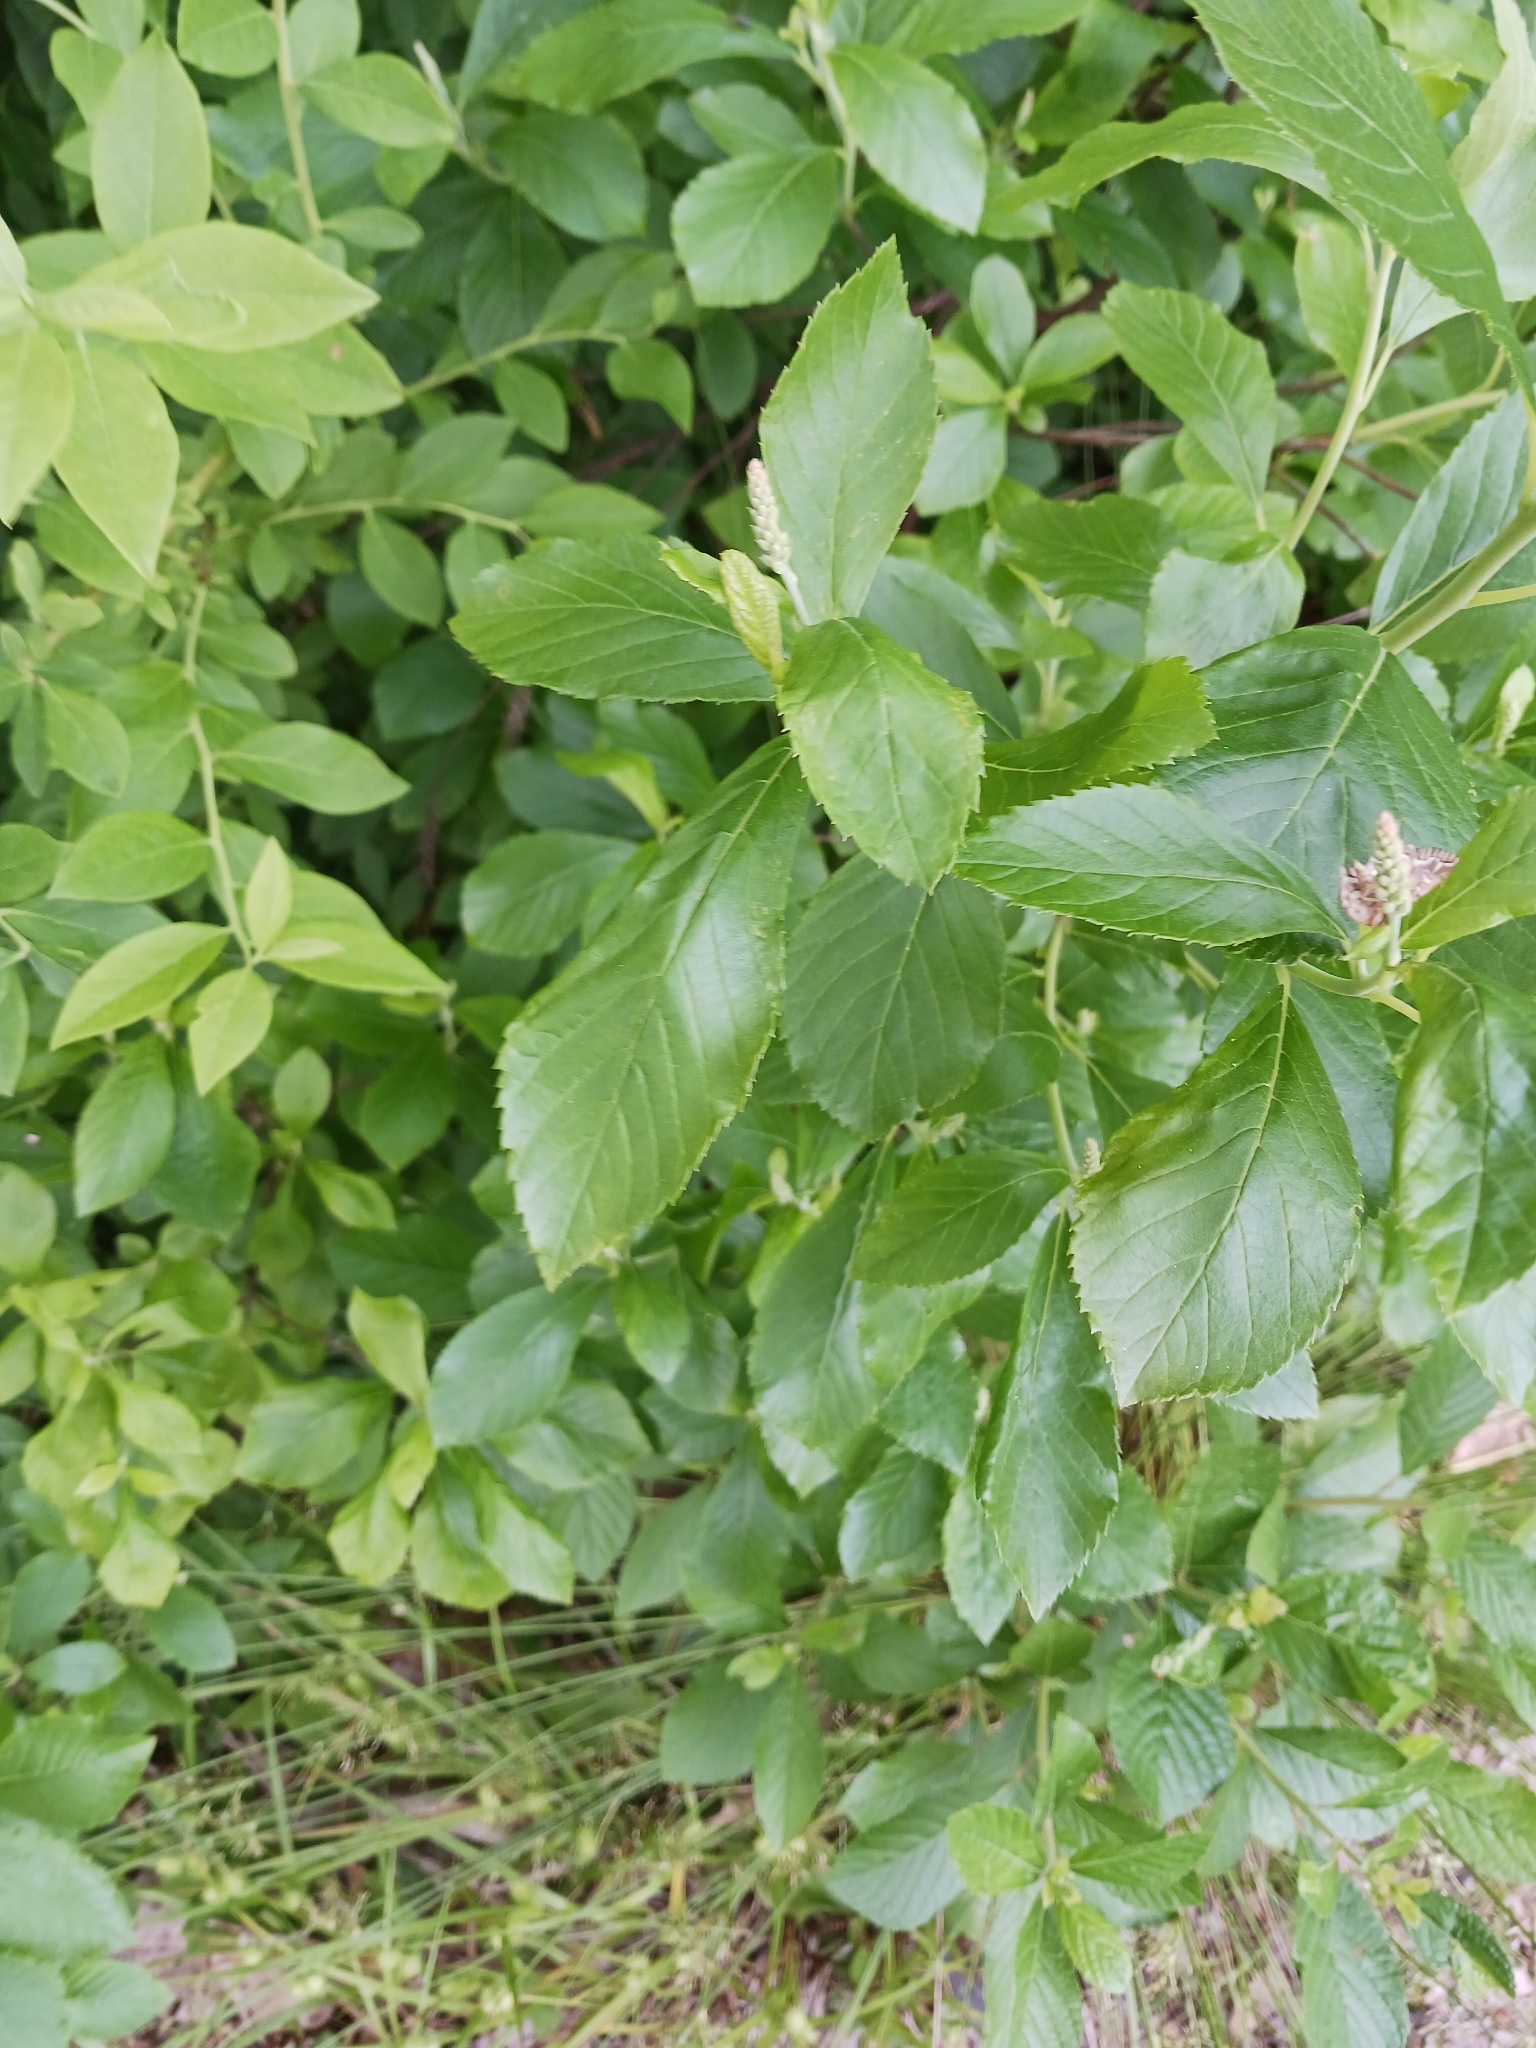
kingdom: Plantae
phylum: Tracheophyta
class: Magnoliopsida
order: Ericales
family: Clethraceae
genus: Clethra
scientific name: Clethra alnifolia
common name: Sweet pepperbush
